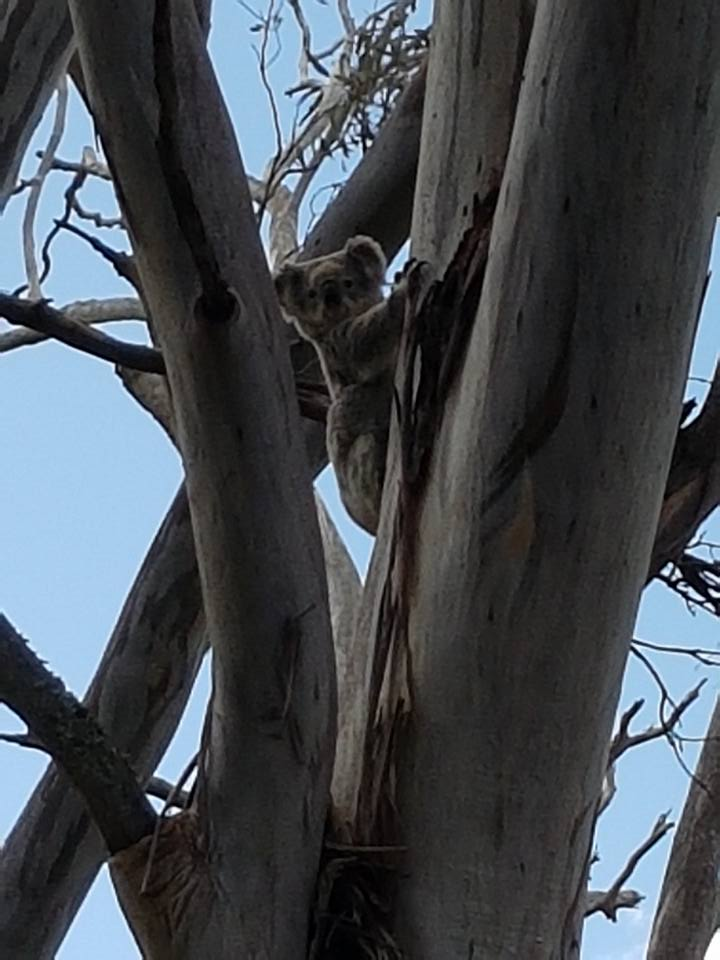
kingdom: Animalia
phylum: Chordata
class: Mammalia
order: Diprotodontia
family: Phascolarctidae
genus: Phascolarctos
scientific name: Phascolarctos cinereus
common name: Koala
